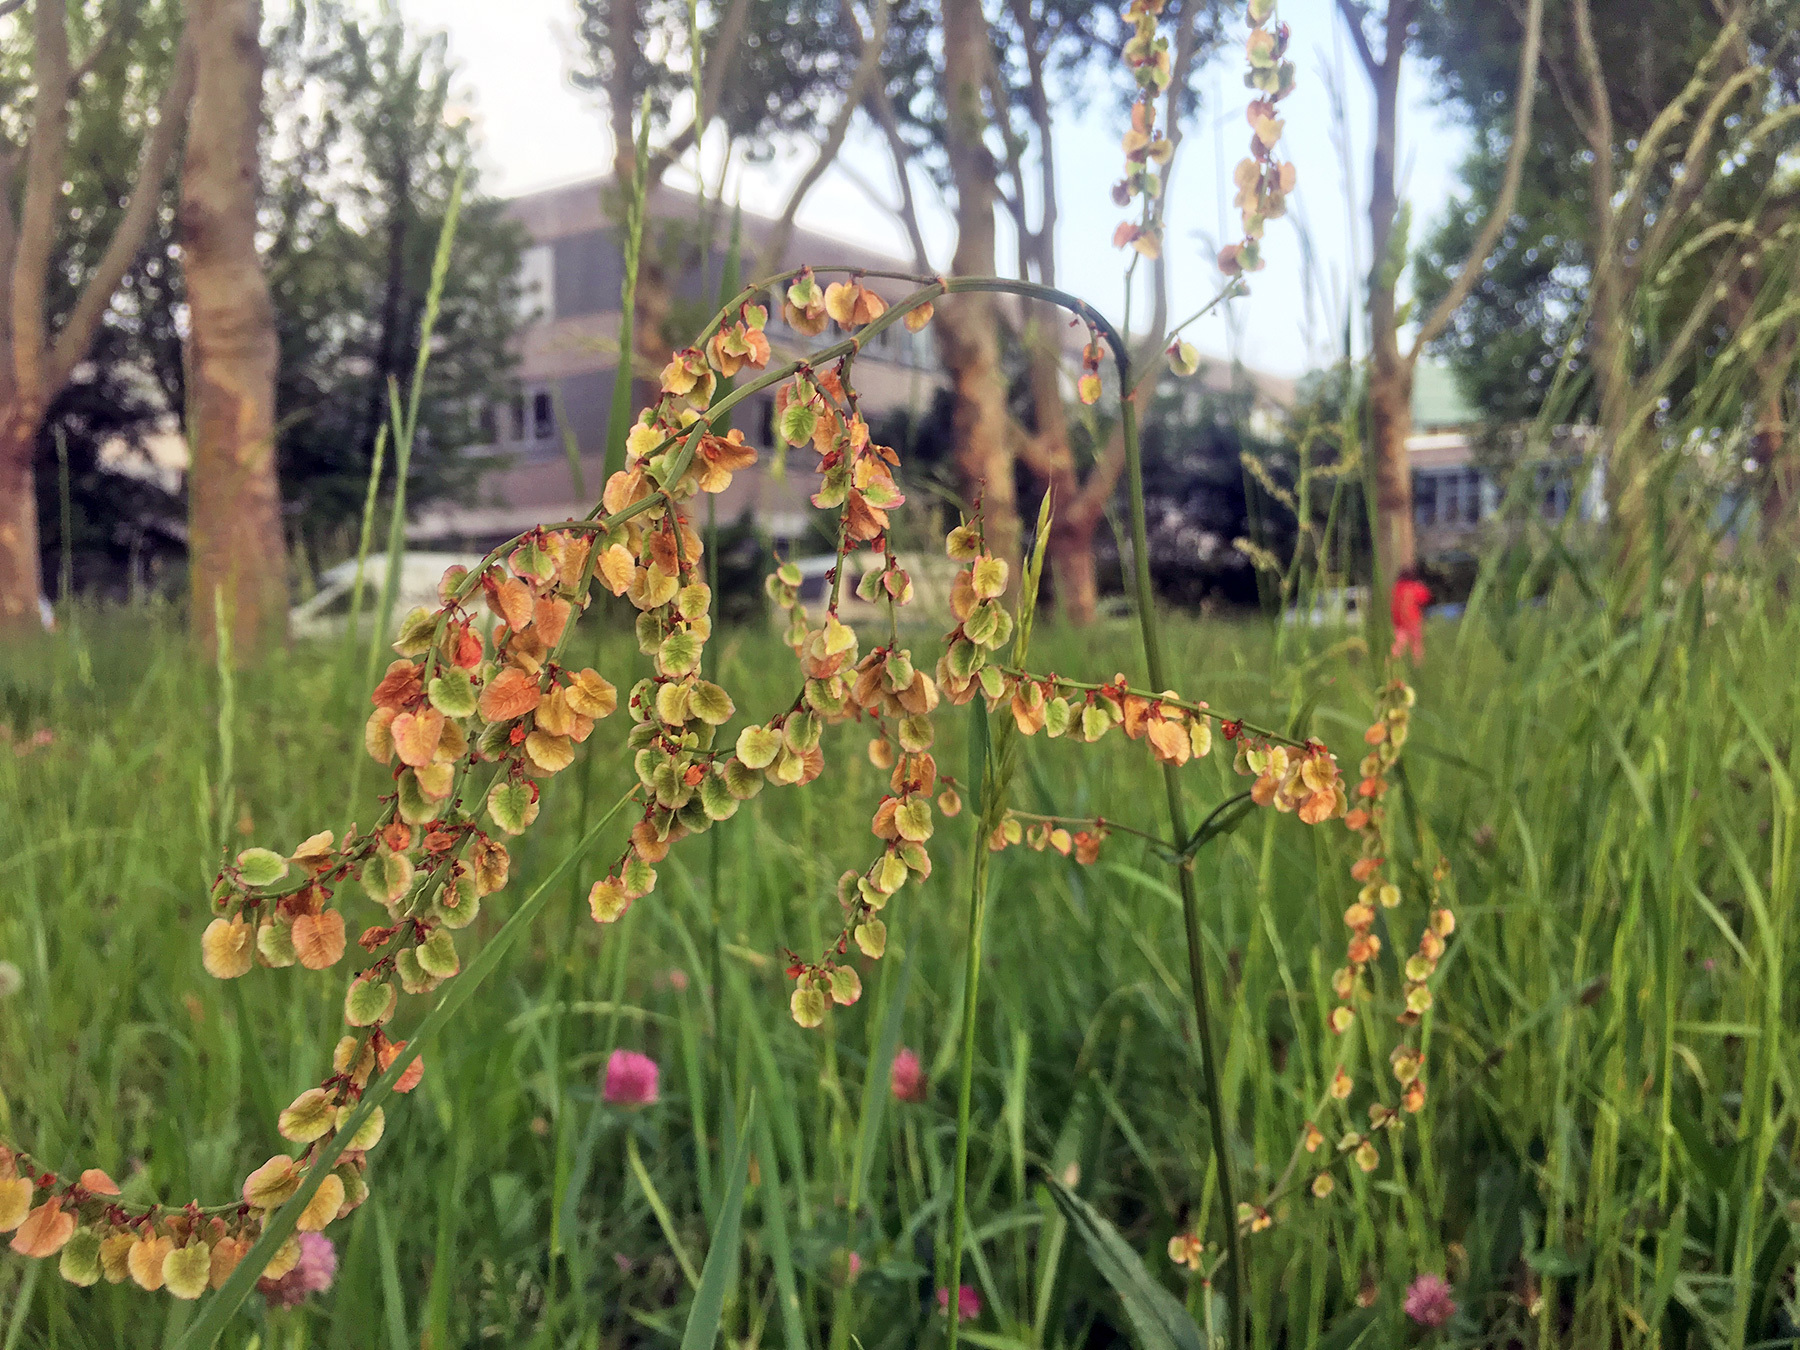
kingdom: Plantae
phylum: Tracheophyta
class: Magnoliopsida
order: Caryophyllales
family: Polygonaceae
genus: Rumex
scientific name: Rumex acetosa
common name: Garden sorrel
